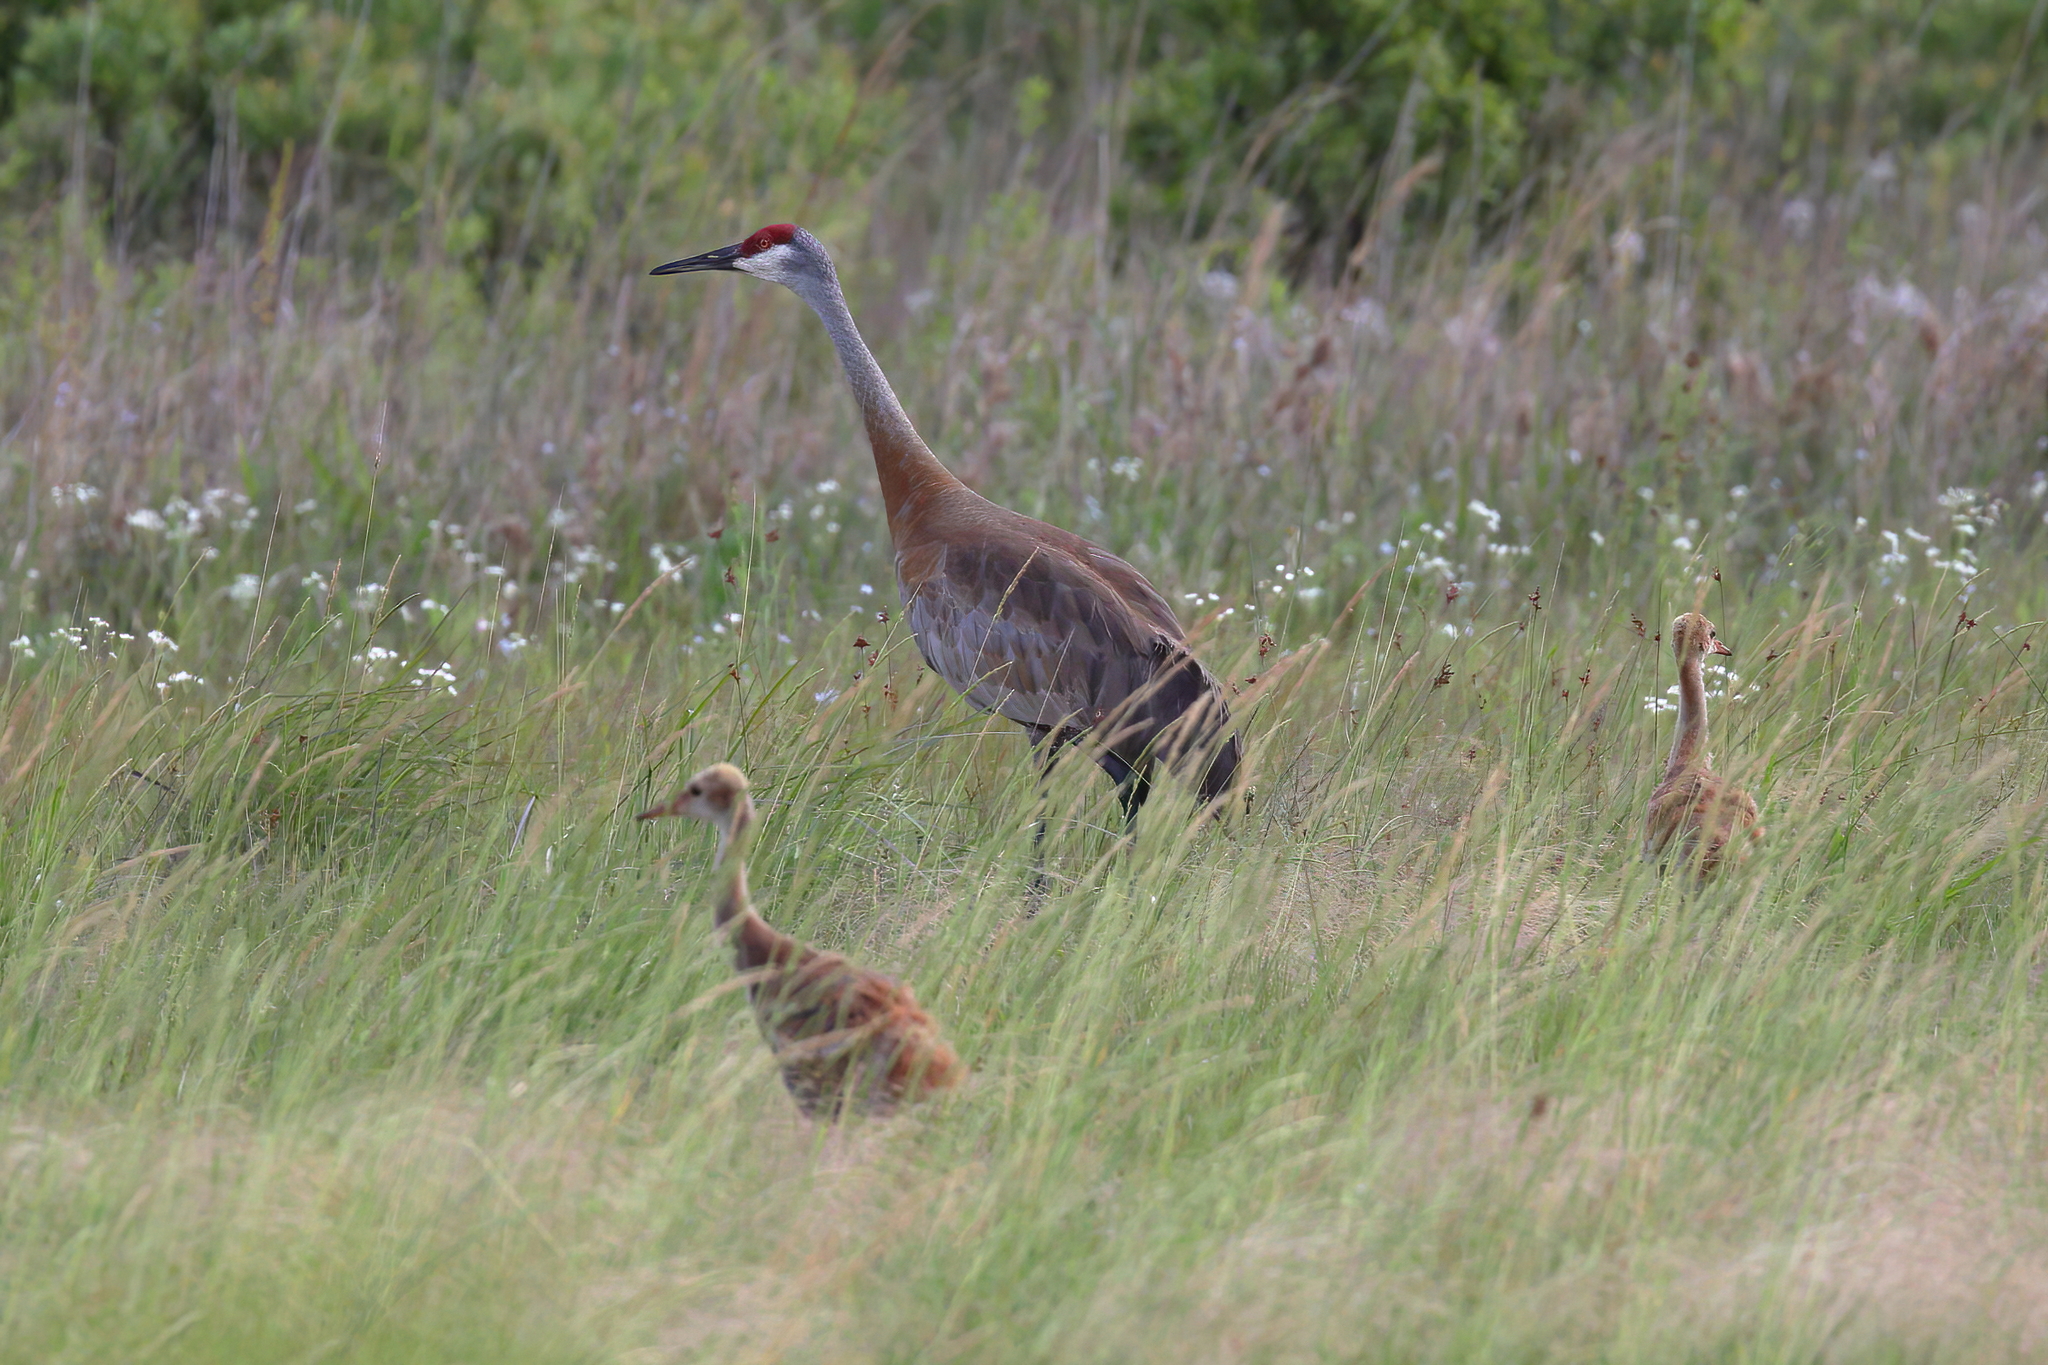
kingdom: Animalia
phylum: Chordata
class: Aves
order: Gruiformes
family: Gruidae
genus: Grus
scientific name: Grus canadensis
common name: Sandhill crane
